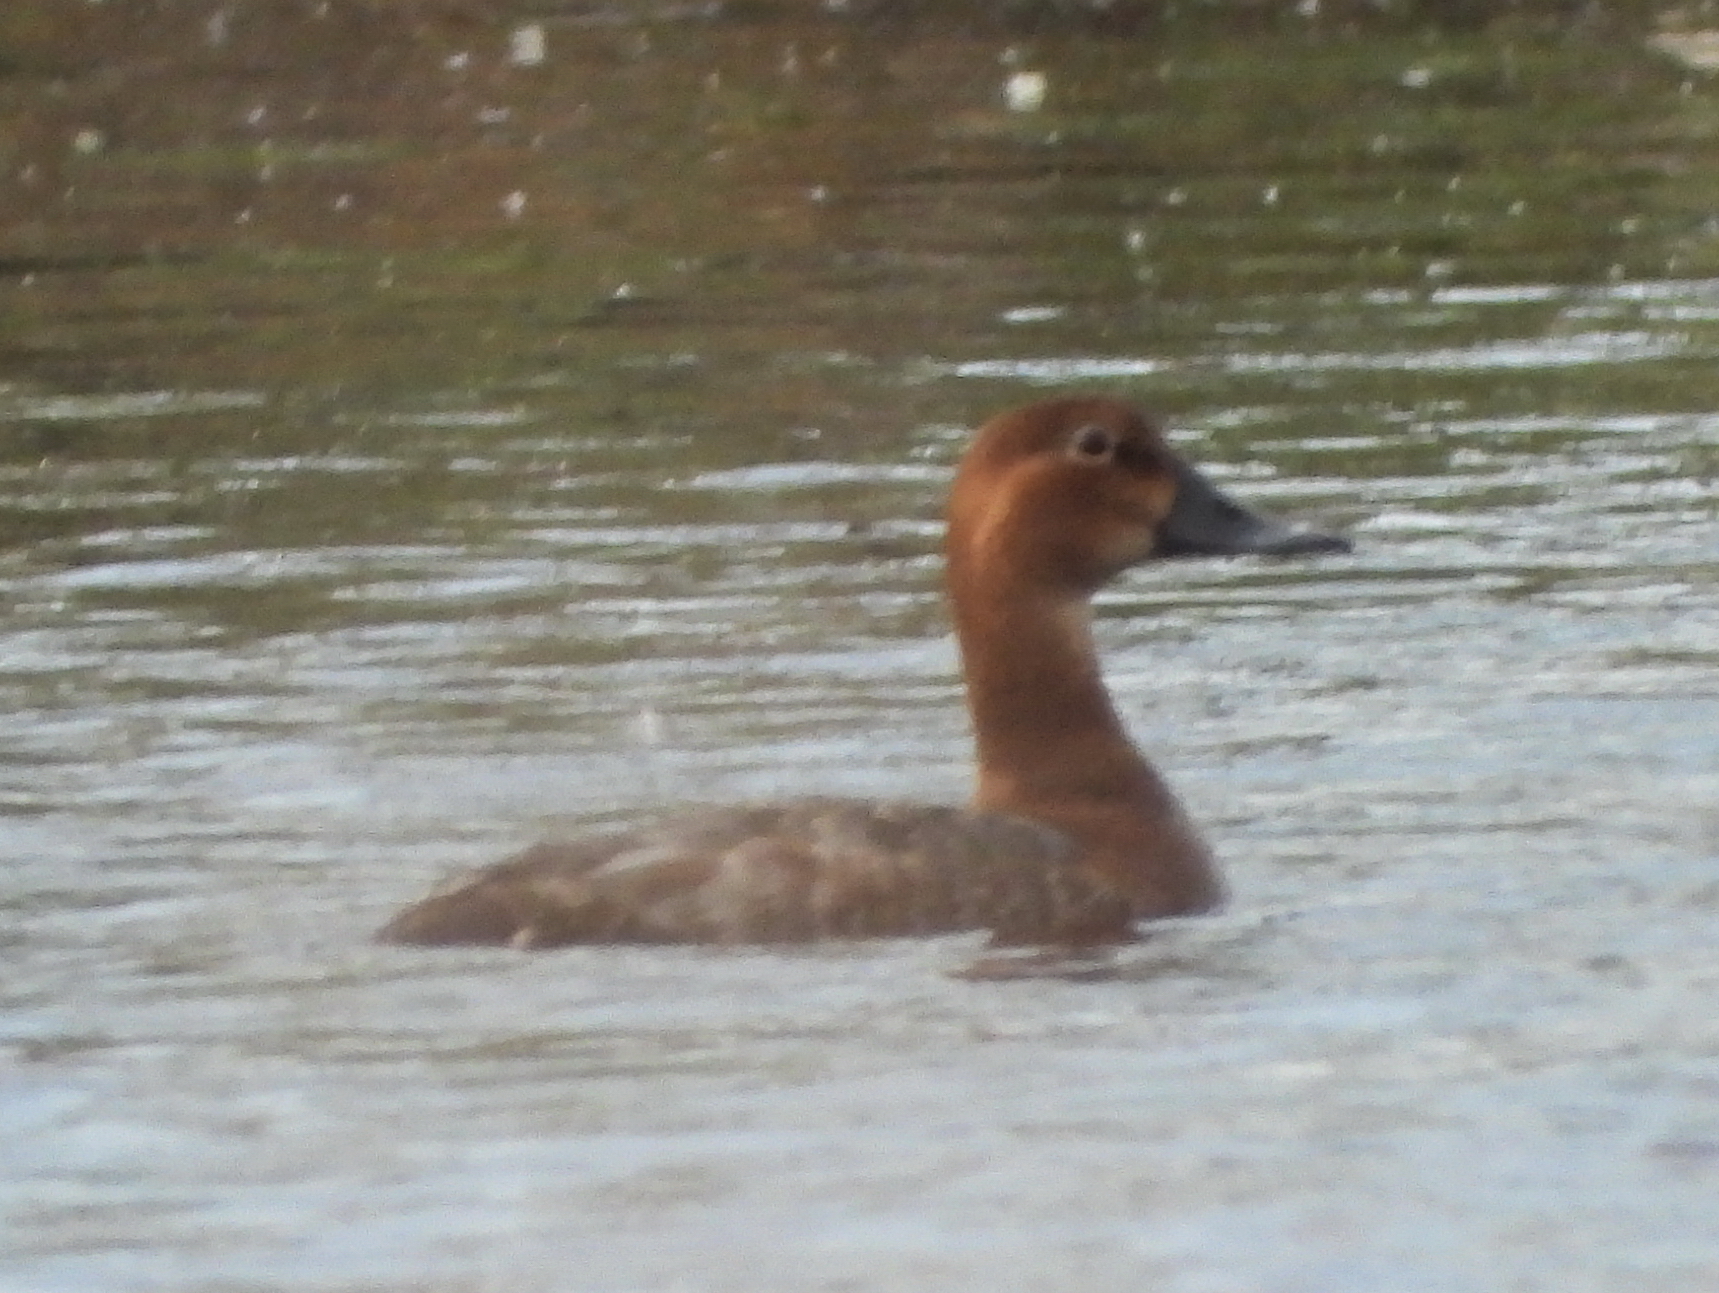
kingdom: Animalia
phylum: Chordata
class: Aves
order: Anseriformes
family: Anatidae
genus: Aythya
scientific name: Aythya ferina
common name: Common pochard
